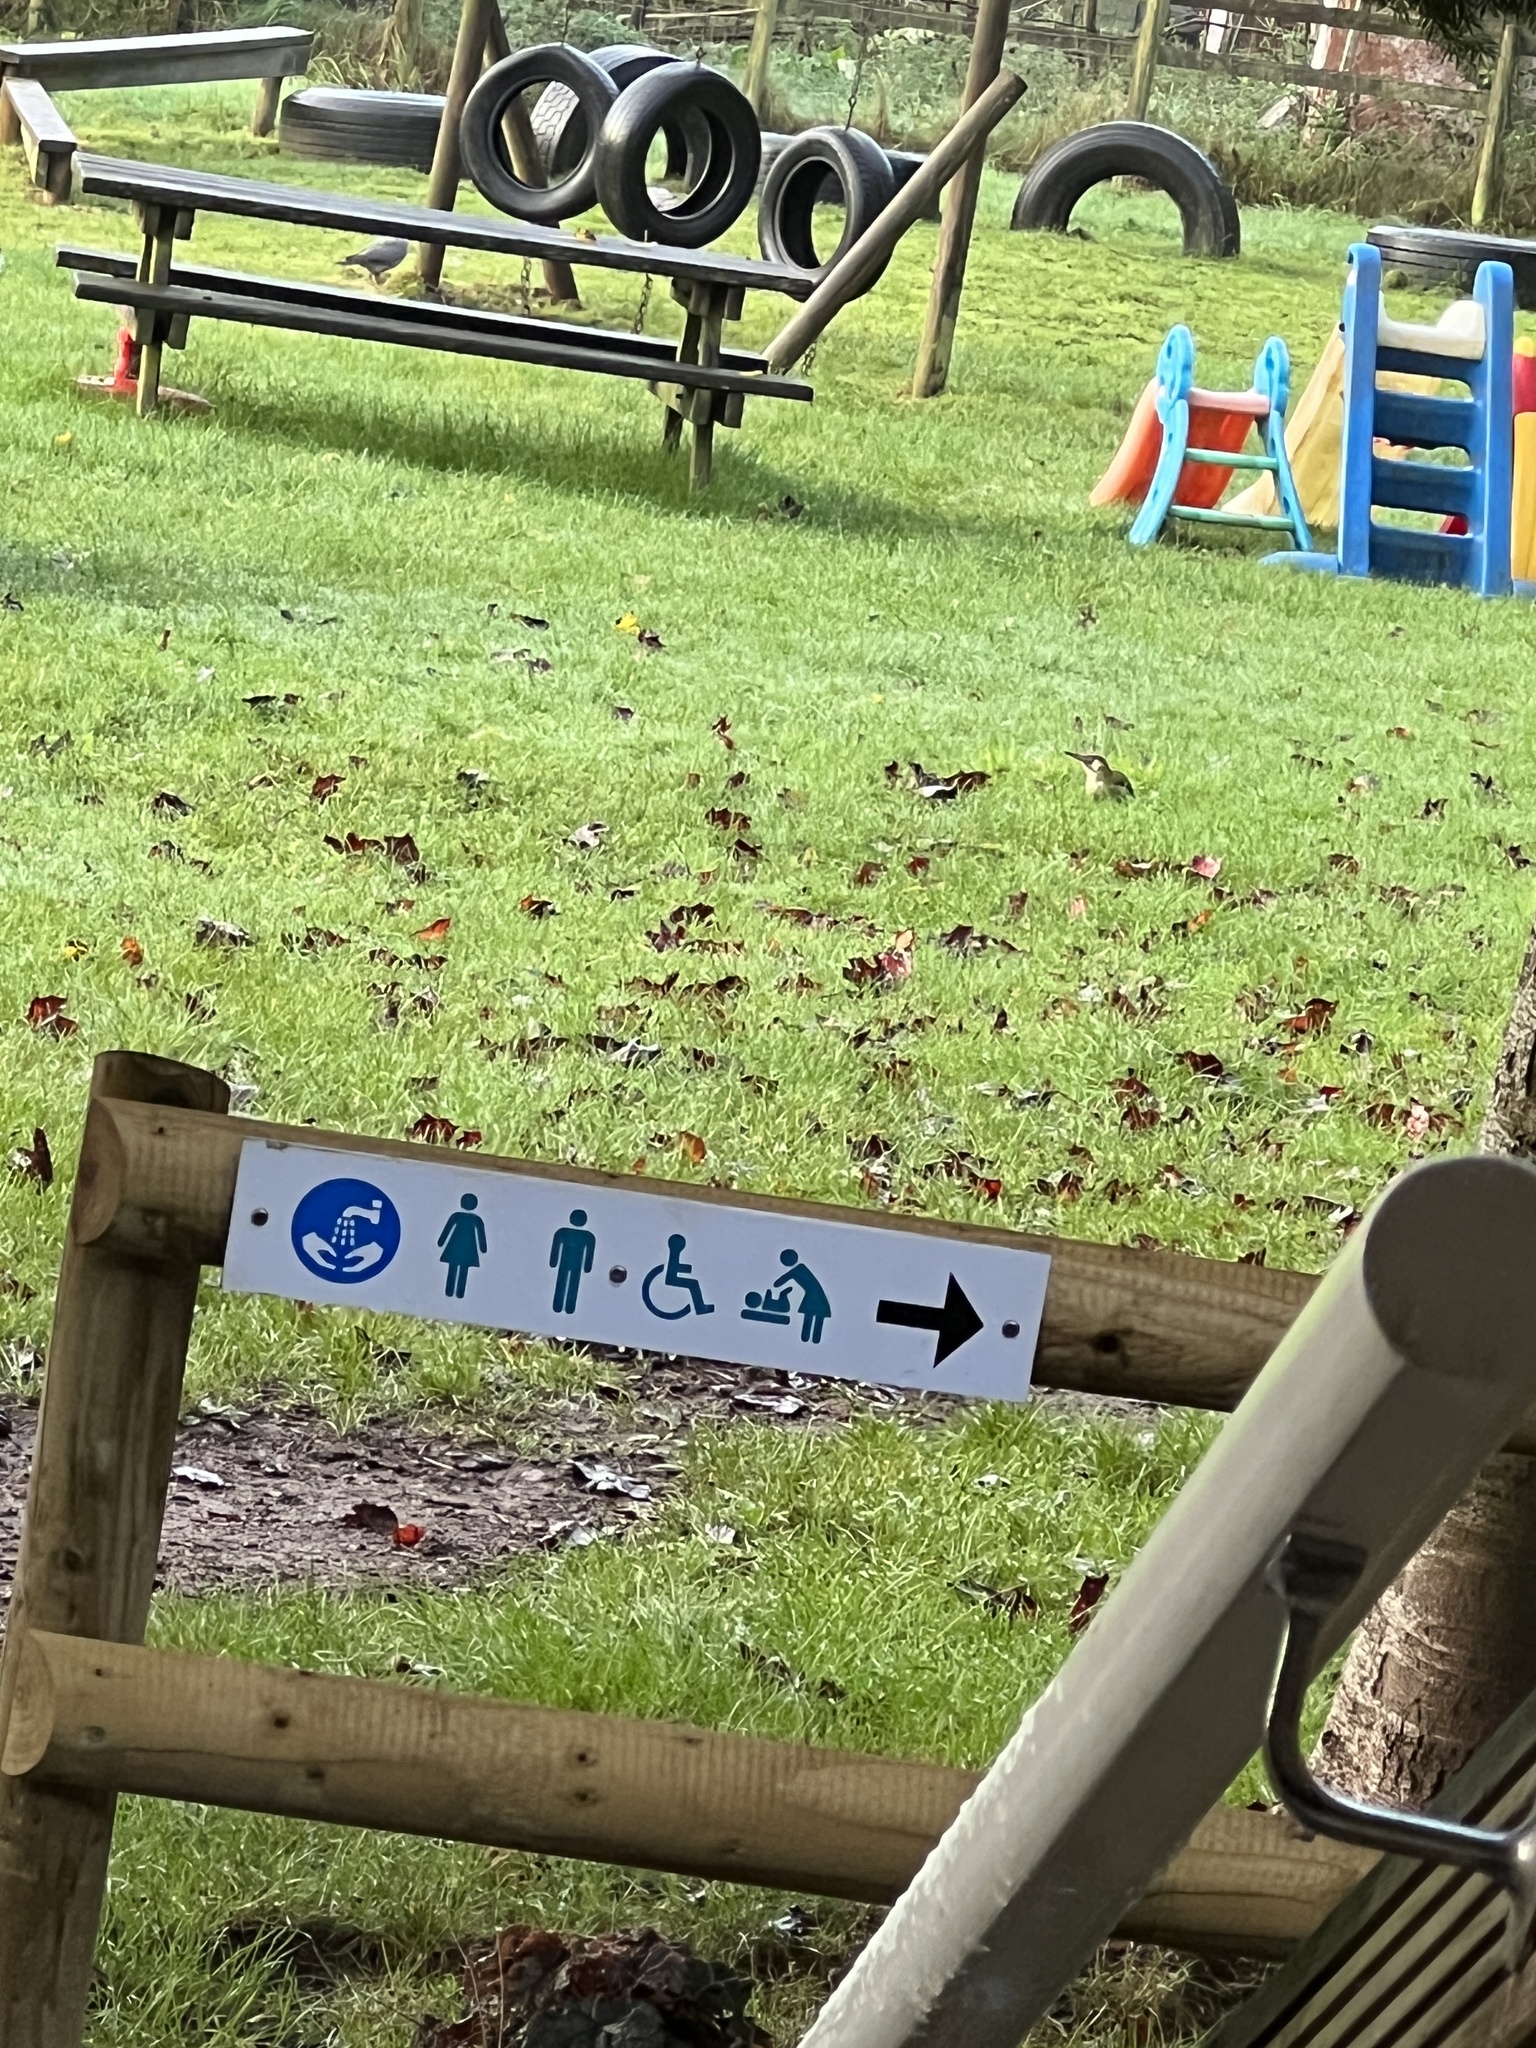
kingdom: Animalia
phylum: Chordata
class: Aves
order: Piciformes
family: Picidae
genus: Picus
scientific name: Picus viridis
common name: European green woodpecker
